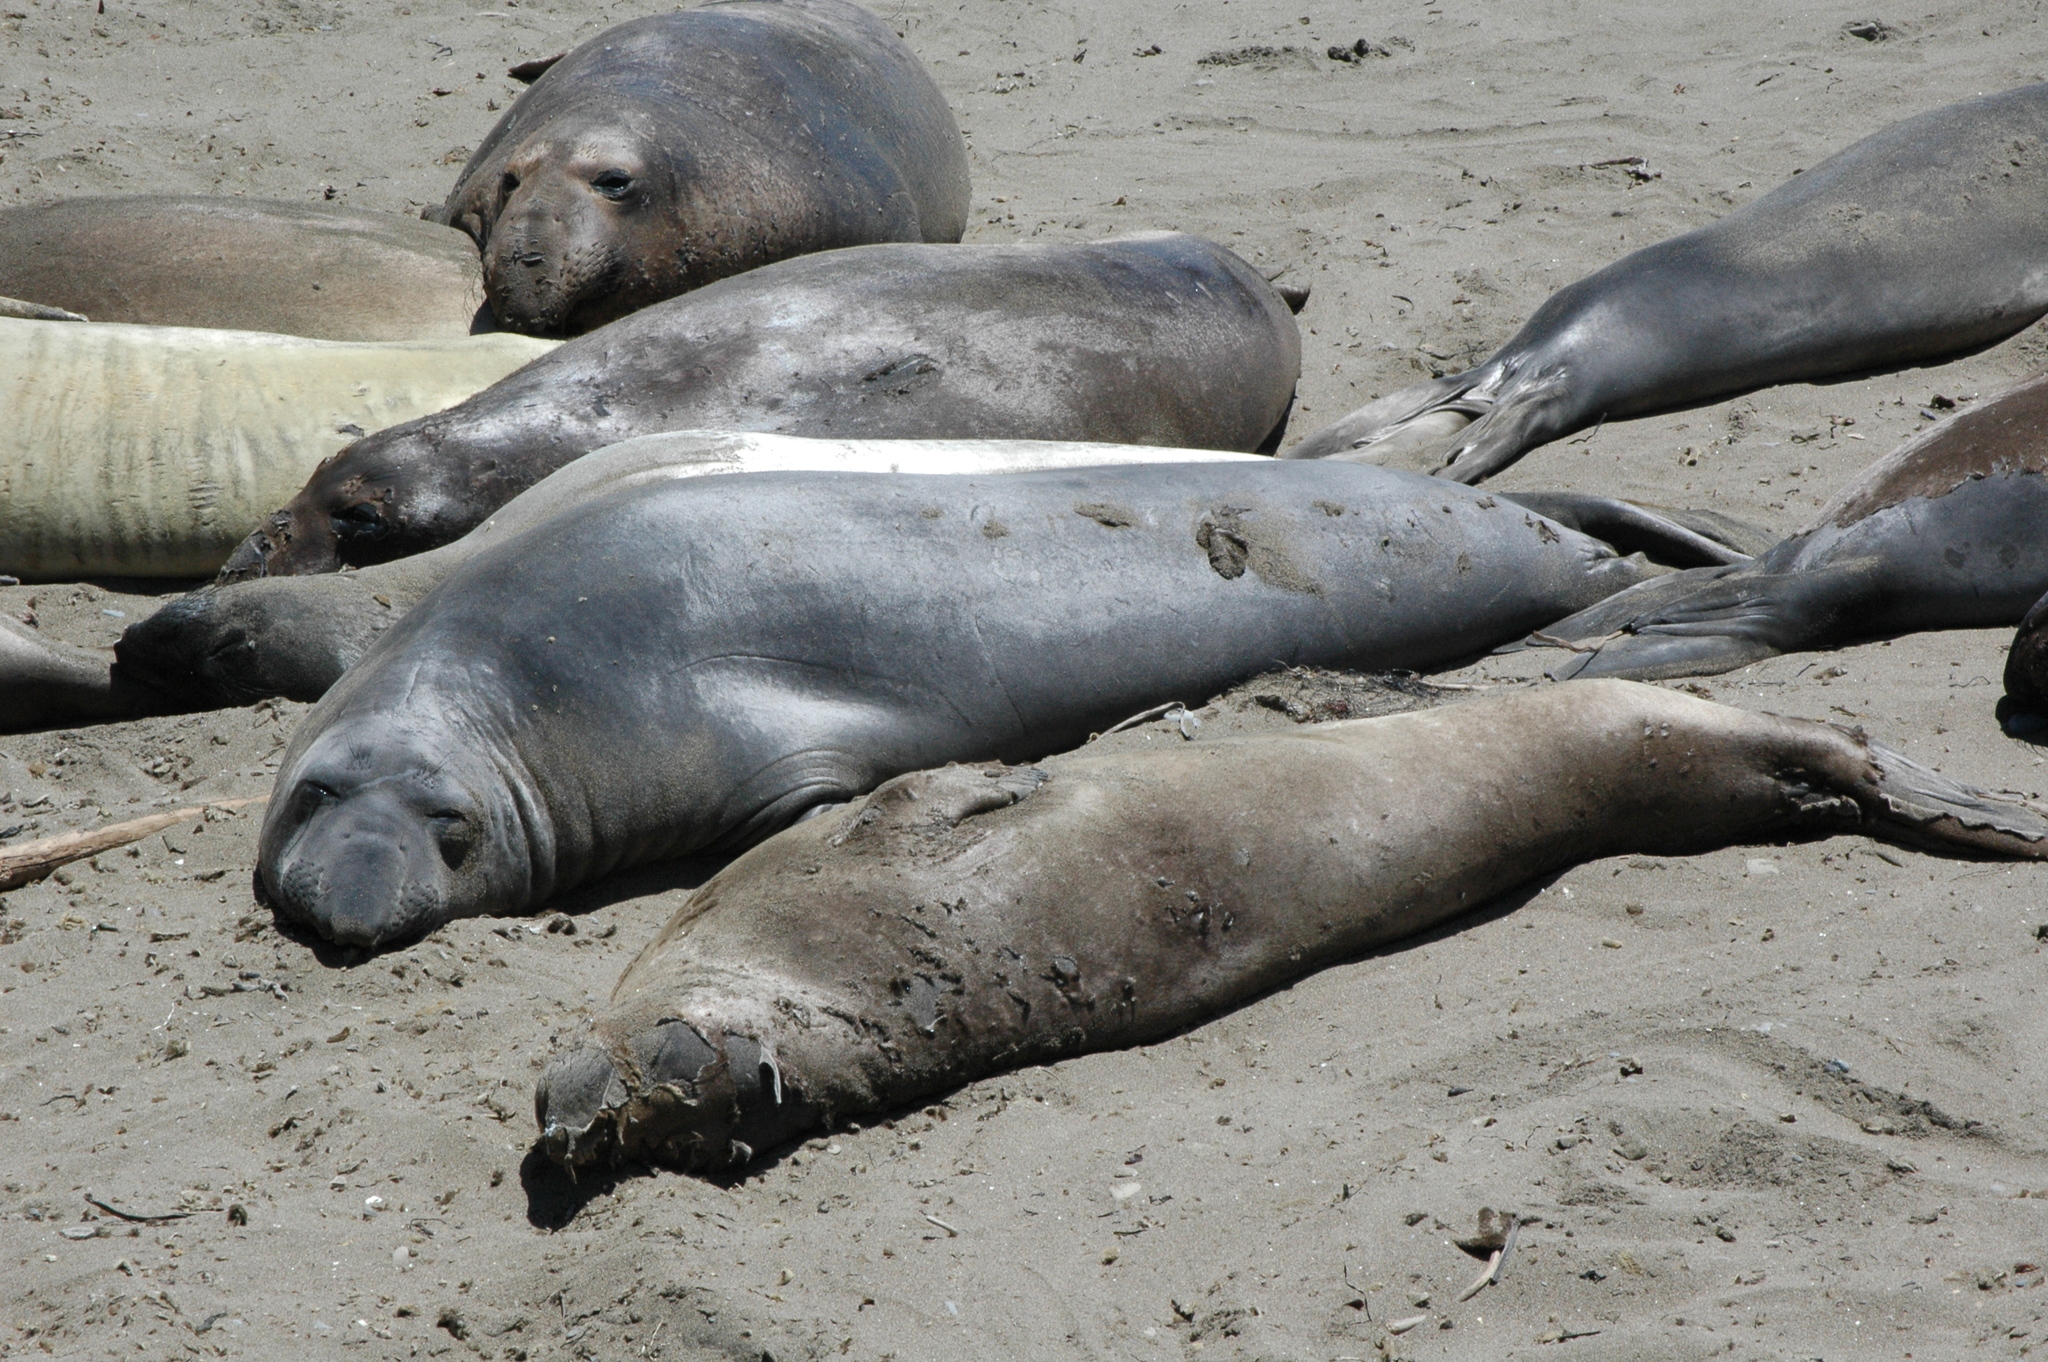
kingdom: Animalia
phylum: Chordata
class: Mammalia
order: Carnivora
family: Phocidae
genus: Mirounga
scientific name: Mirounga angustirostris
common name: Northern elephant seal
